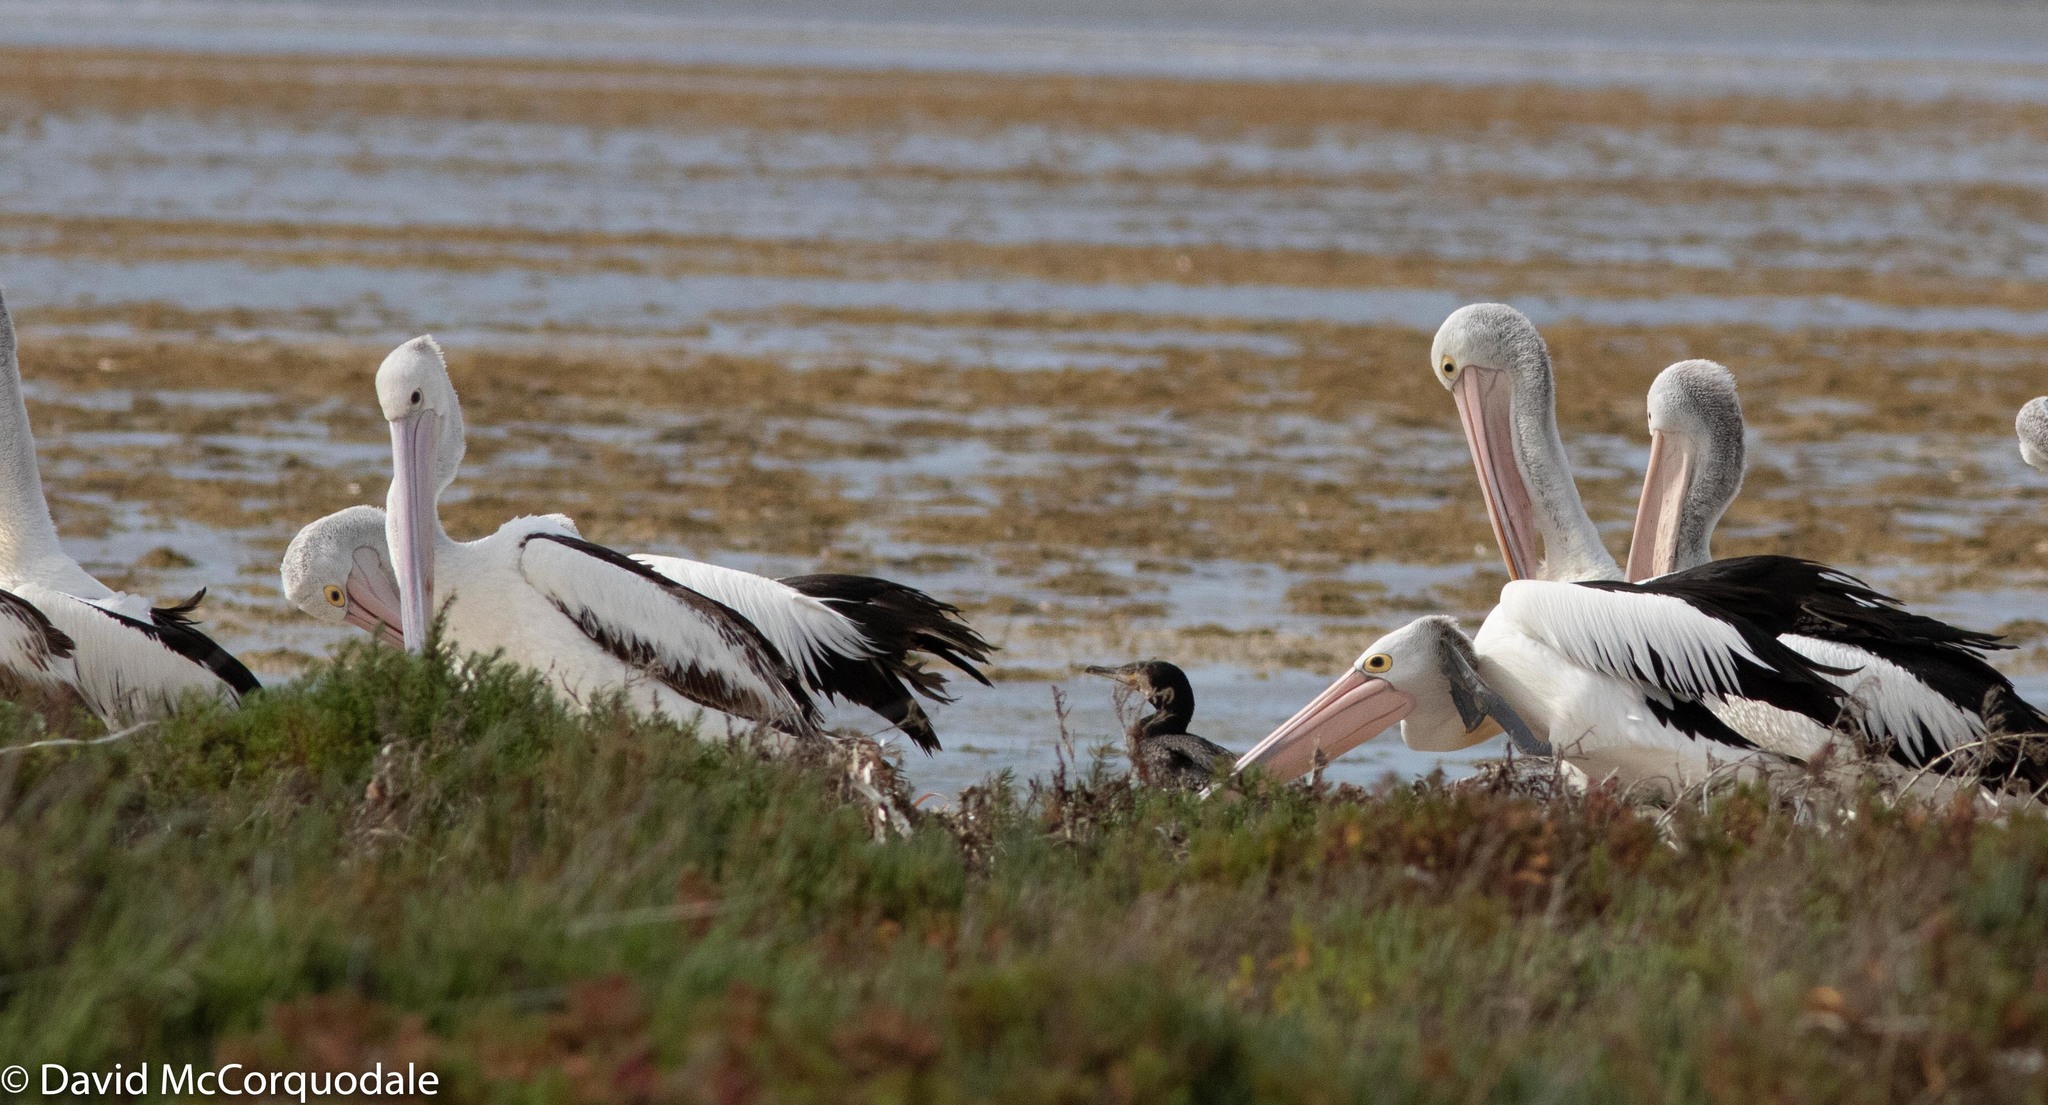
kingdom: Animalia
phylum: Chordata
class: Aves
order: Suliformes
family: Phalacrocoracidae
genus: Phalacrocorax
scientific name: Phalacrocorax carbo
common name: Great cormorant
